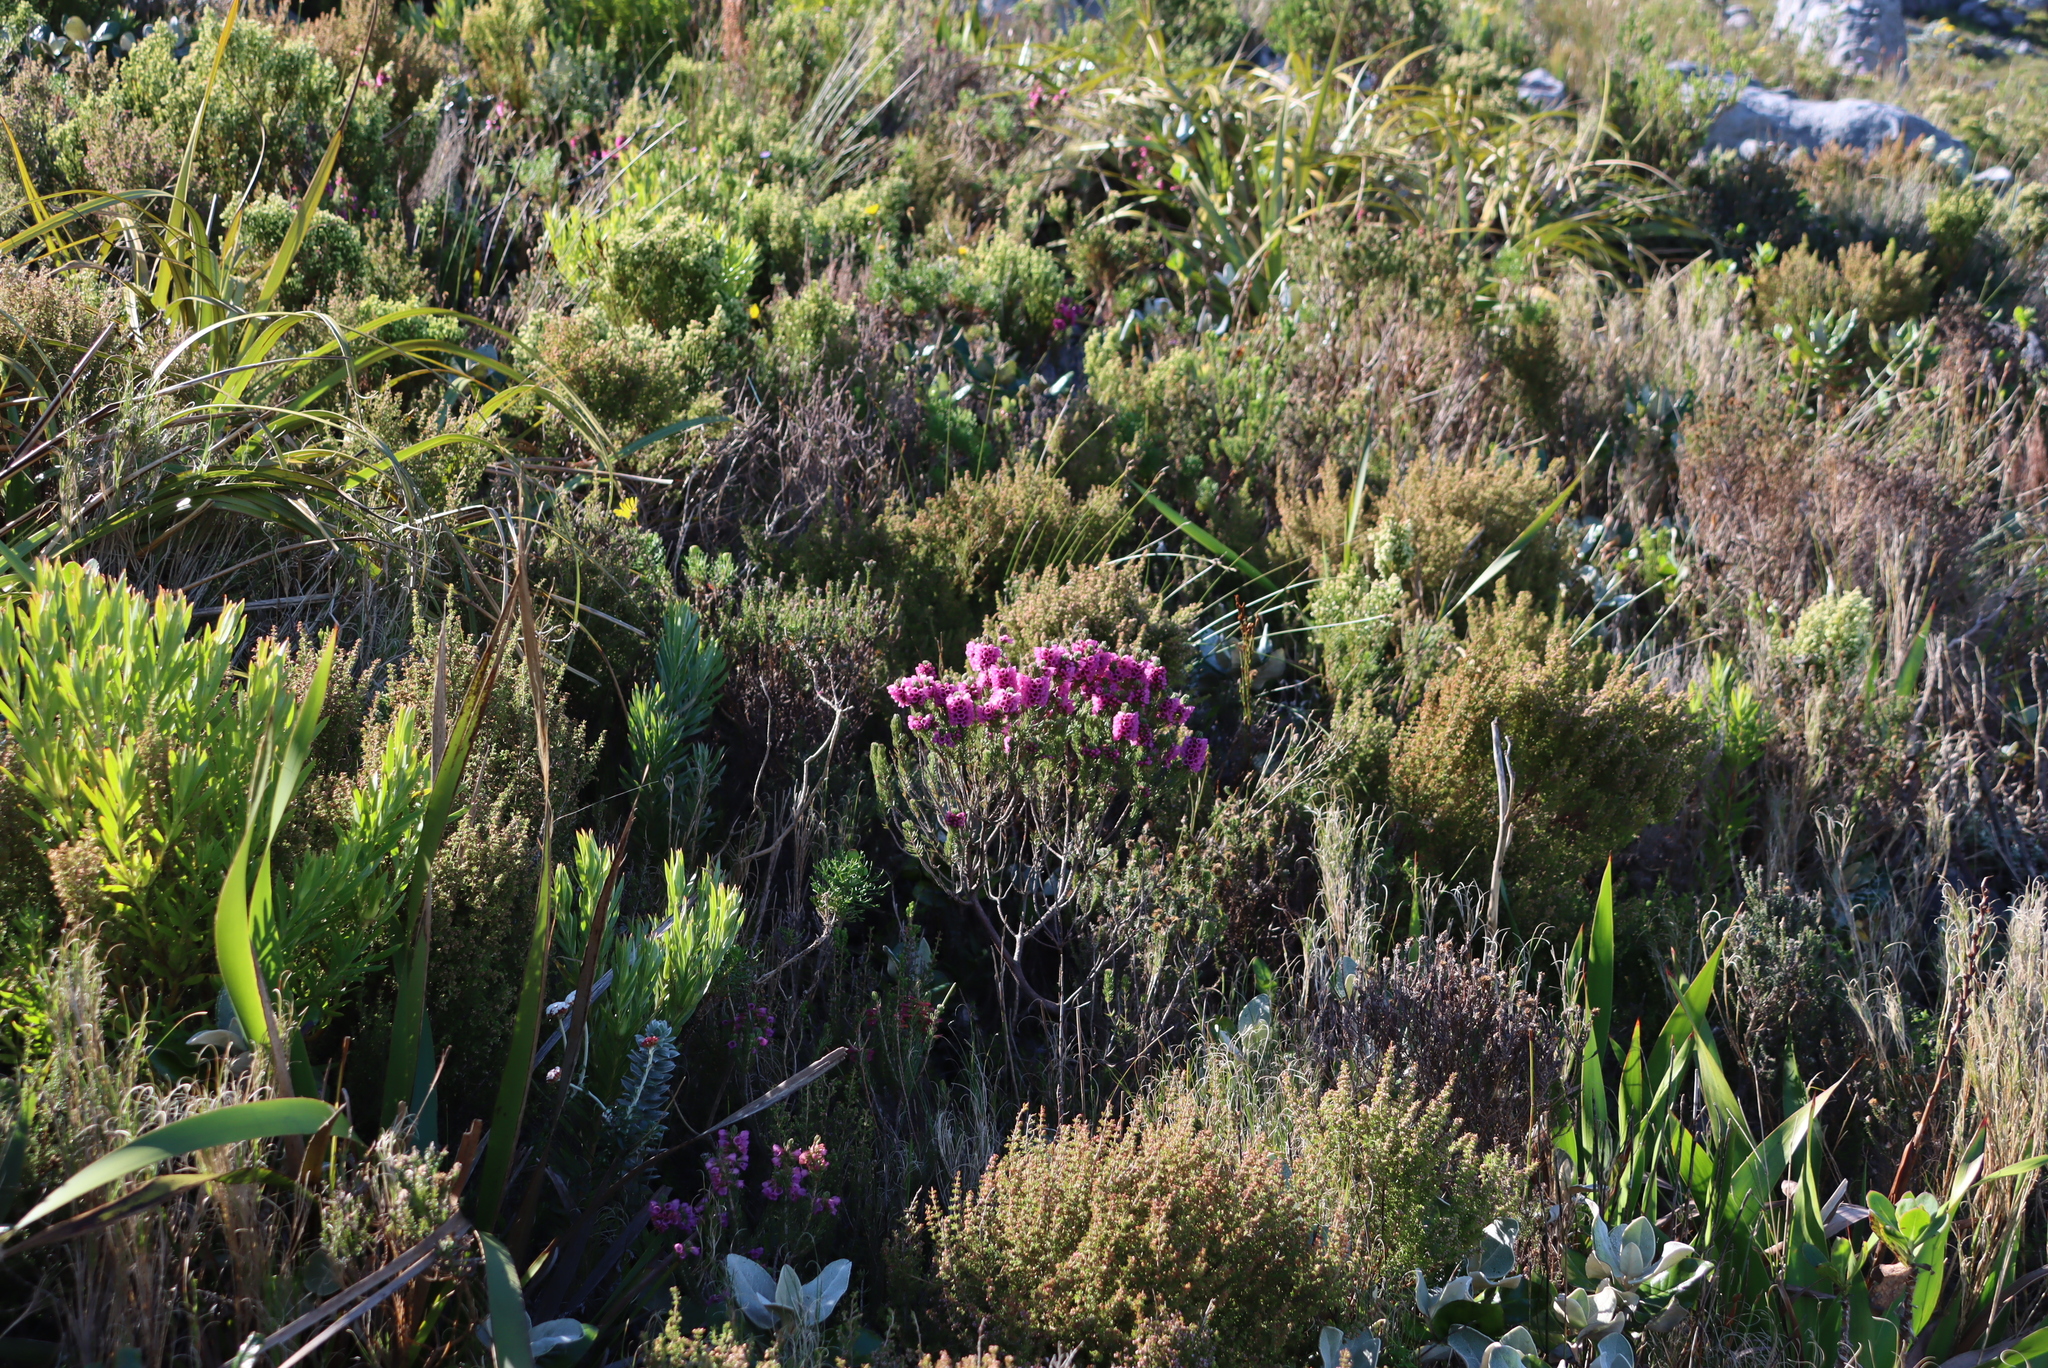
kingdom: Plantae
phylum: Tracheophyta
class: Magnoliopsida
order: Ericales
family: Ericaceae
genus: Erica
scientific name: Erica hispidula
